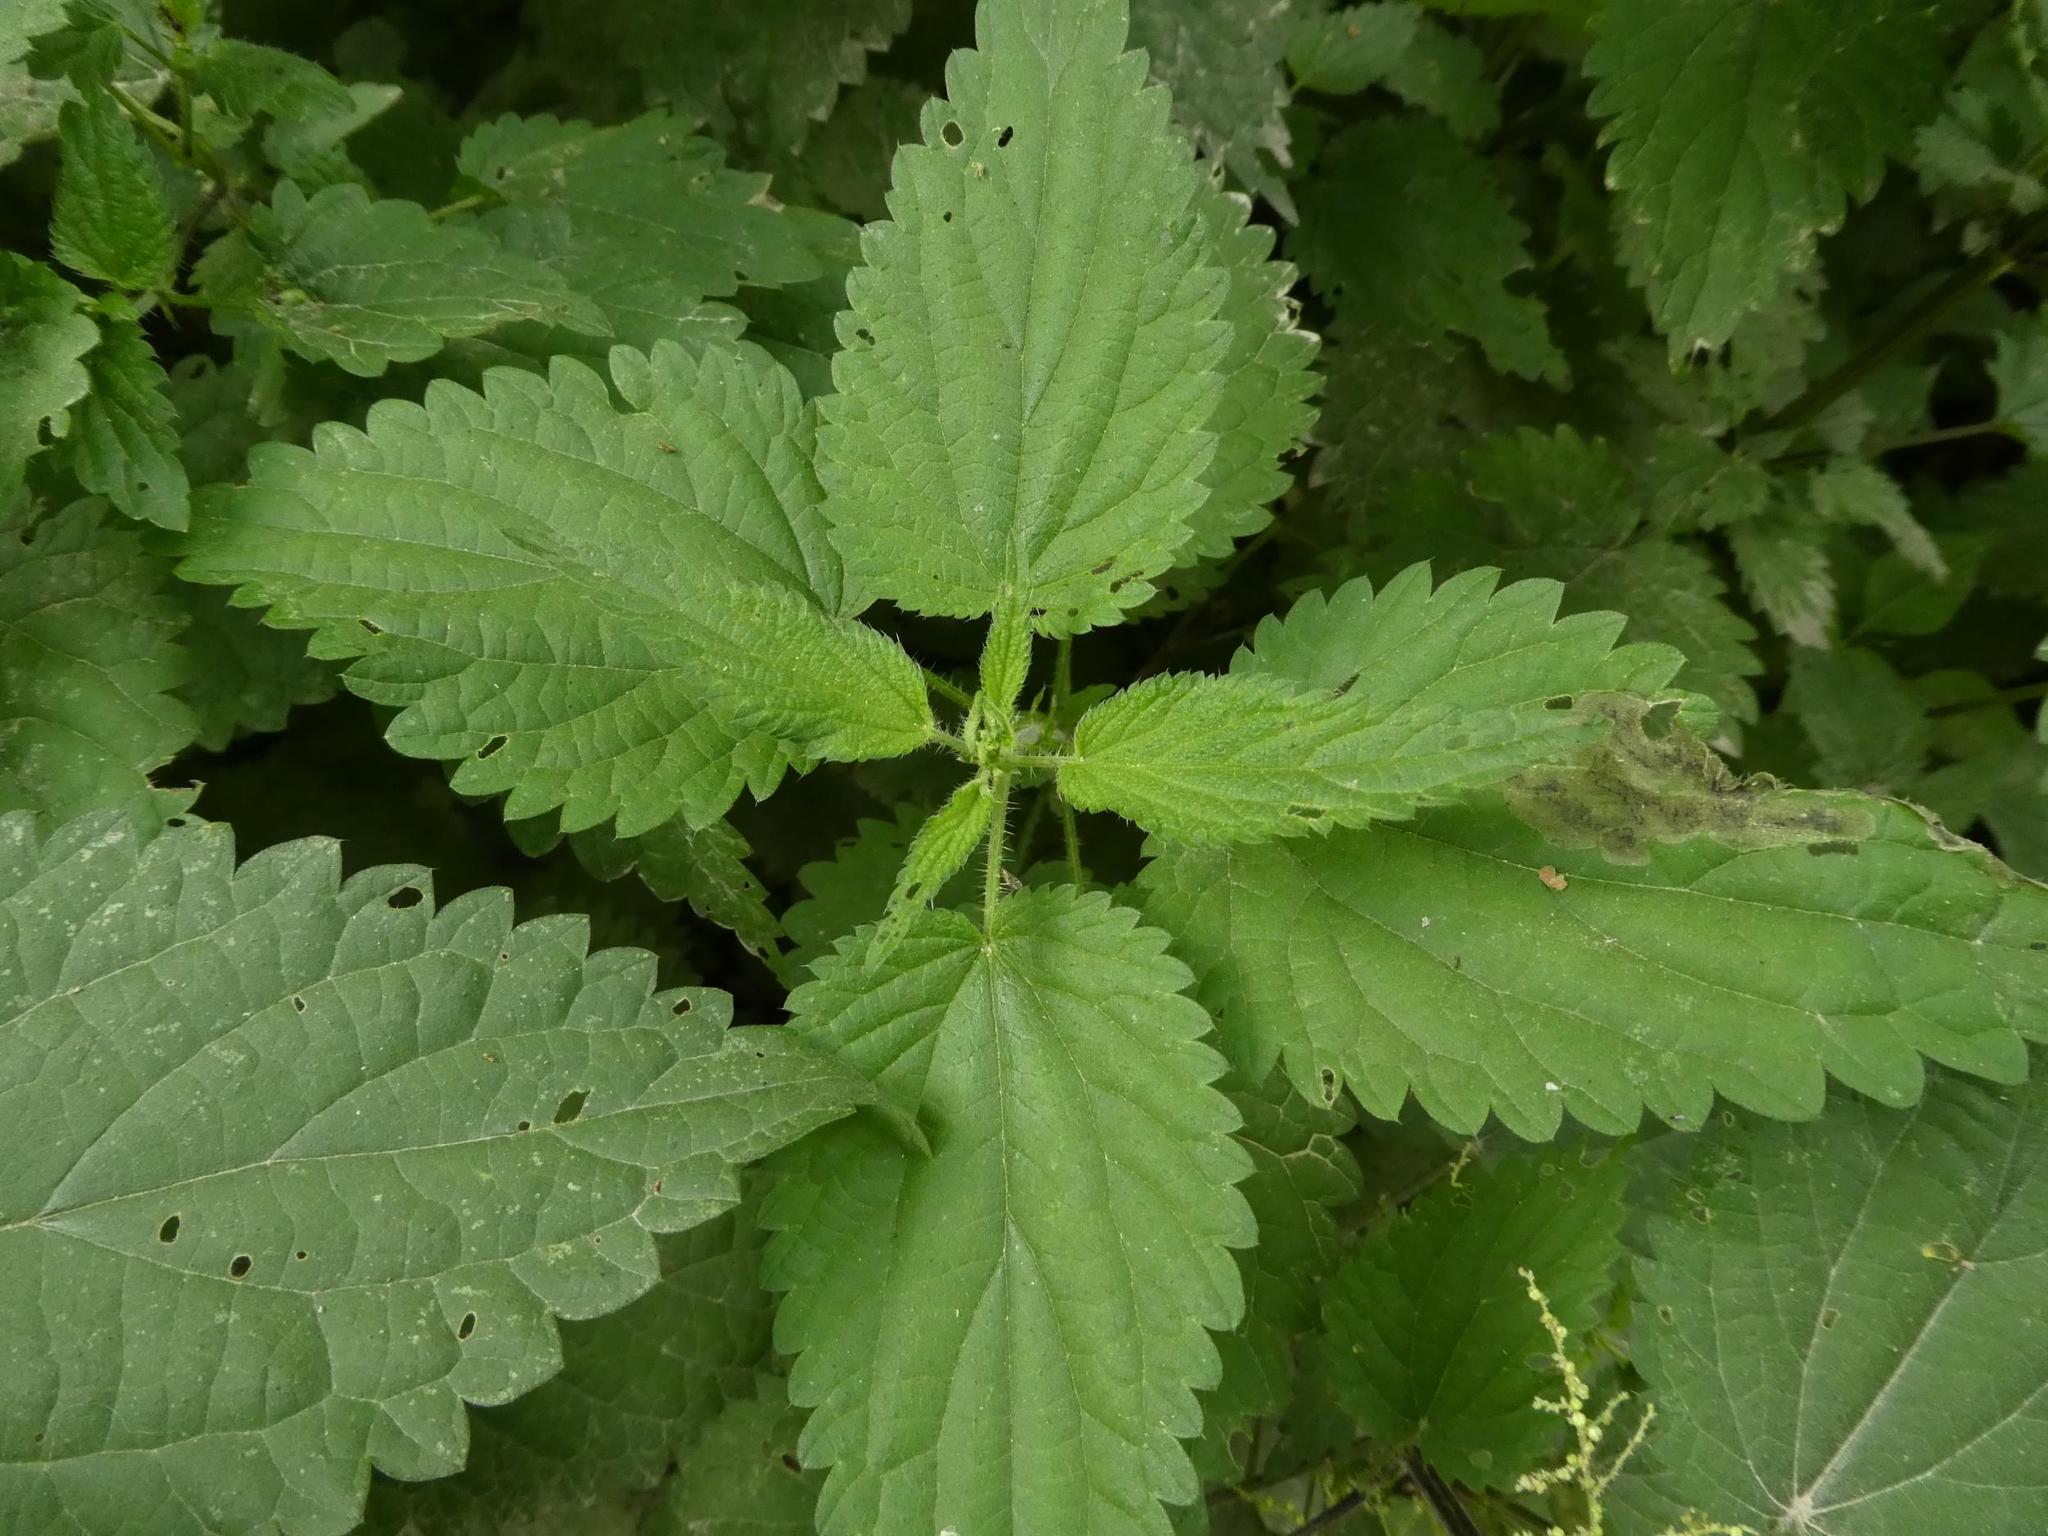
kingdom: Plantae
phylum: Tracheophyta
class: Magnoliopsida
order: Rosales
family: Urticaceae
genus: Urtica
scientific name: Urtica dioica
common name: Common nettle
